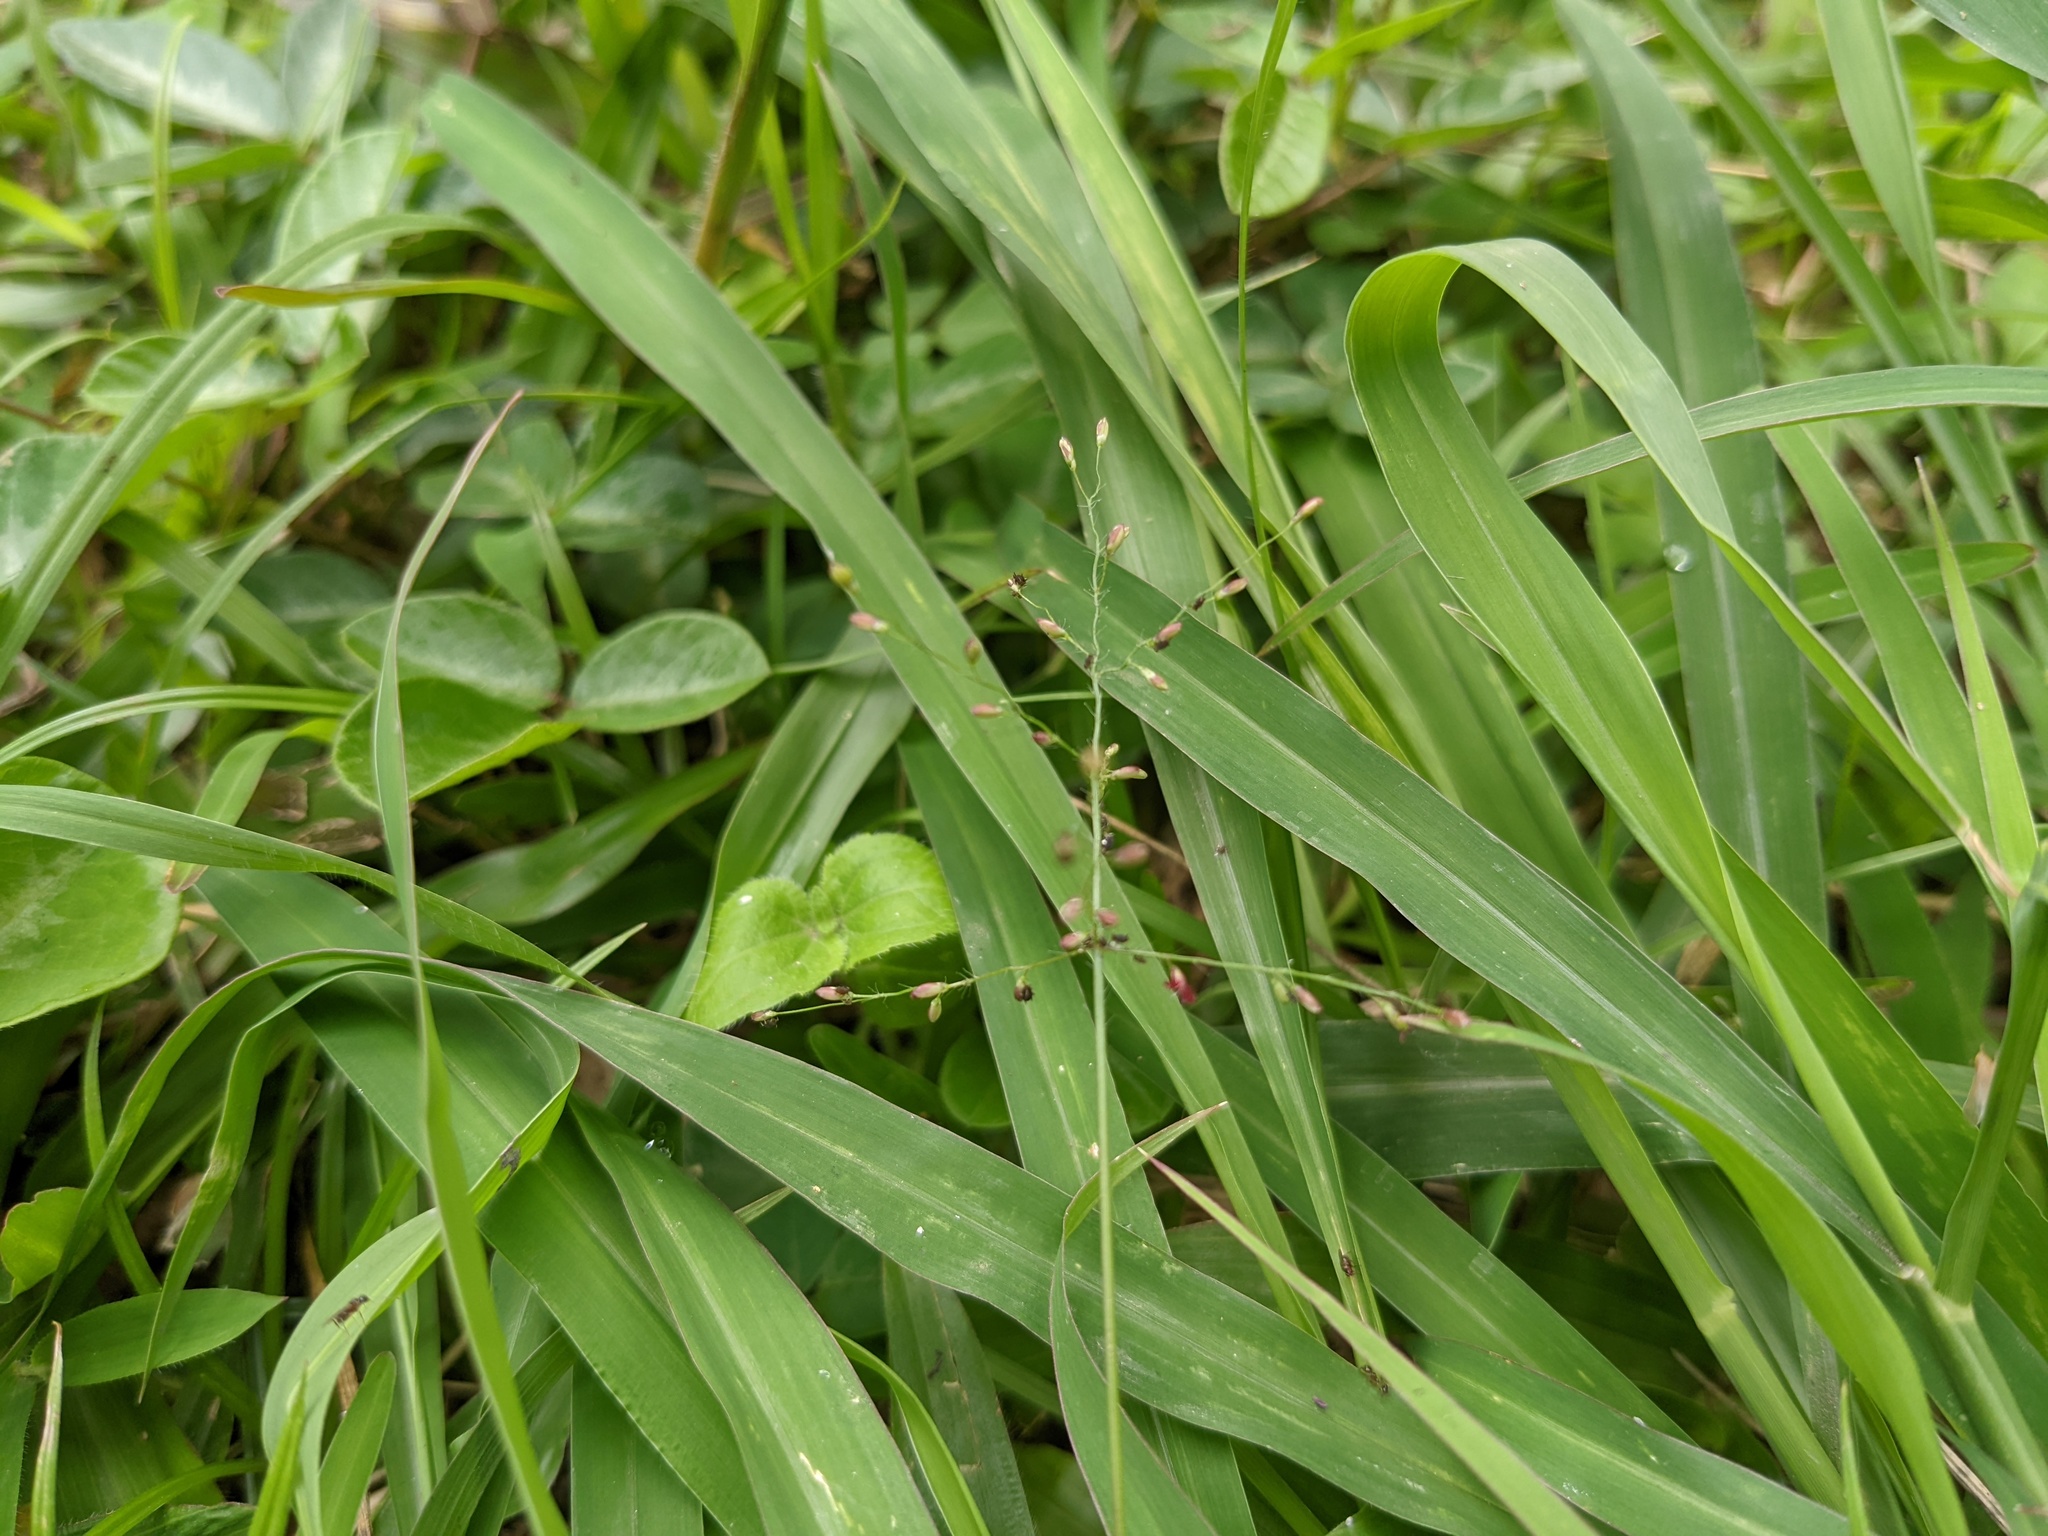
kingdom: Plantae
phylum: Tracheophyta
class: Liliopsida
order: Poales
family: Poaceae
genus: Urochloa
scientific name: Urochloa Brachiaria umbellata
